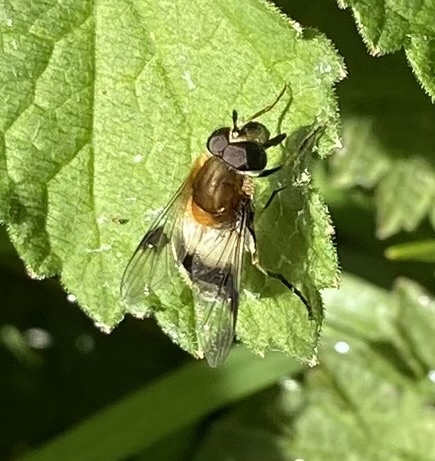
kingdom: Animalia
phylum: Arthropoda
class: Insecta
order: Diptera
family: Syrphidae
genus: Leucozona
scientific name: Leucozona lucorum
